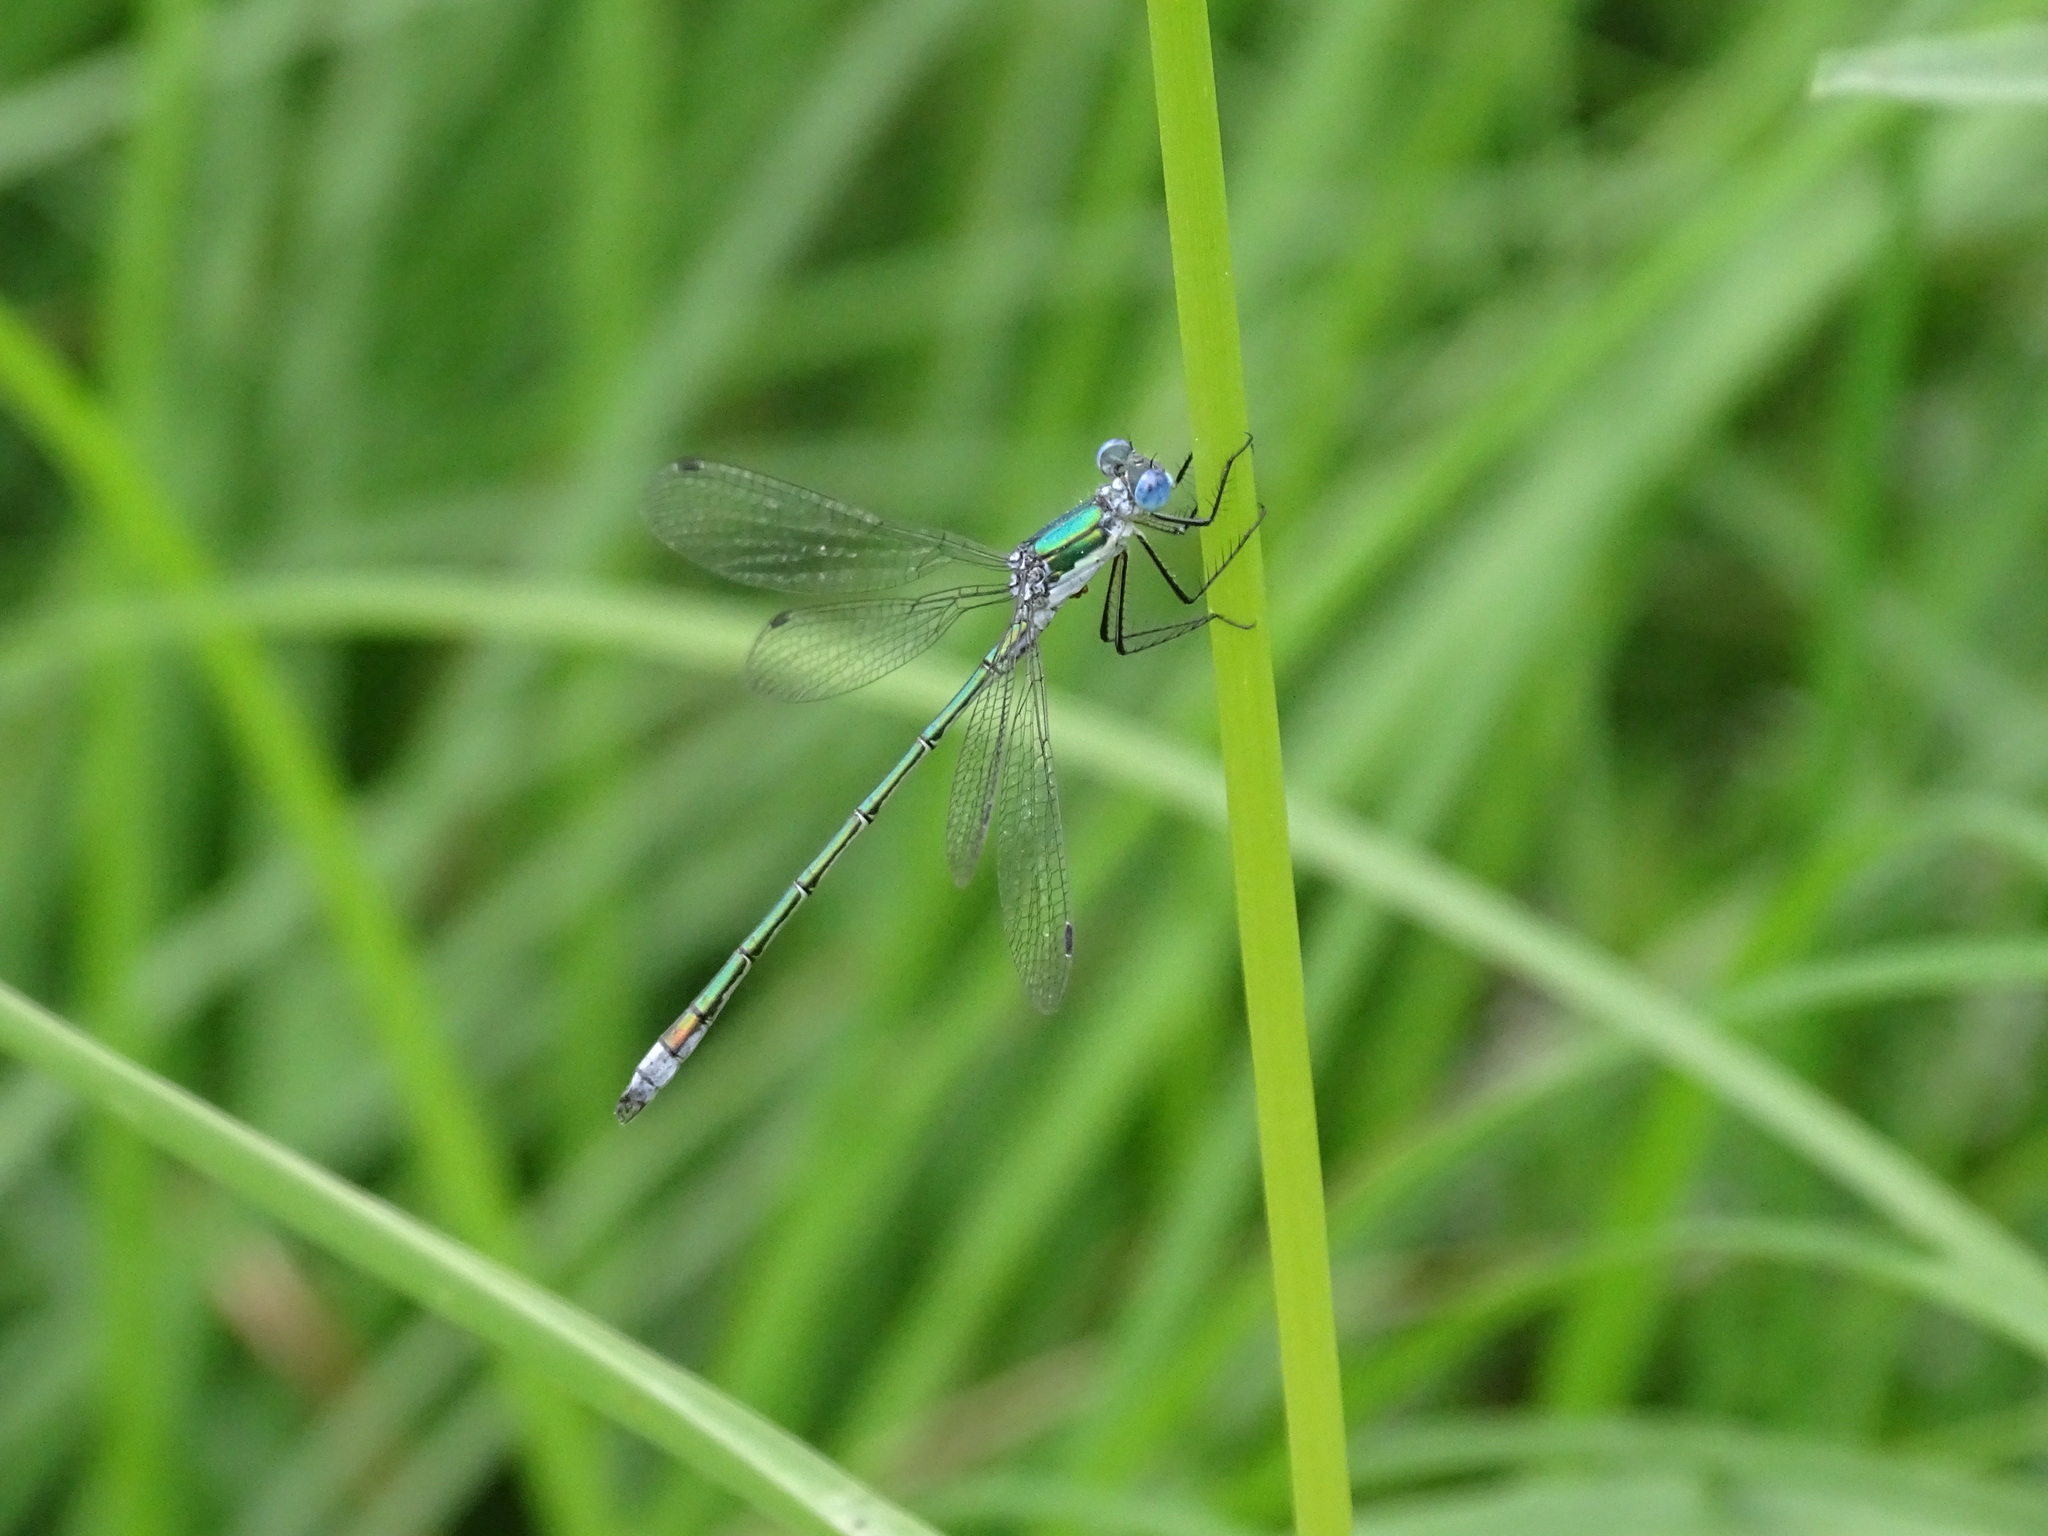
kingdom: Animalia
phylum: Arthropoda
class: Insecta
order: Odonata
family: Lestidae
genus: Lestes
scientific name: Lestes dryas
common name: Scarce emerald damselfly
